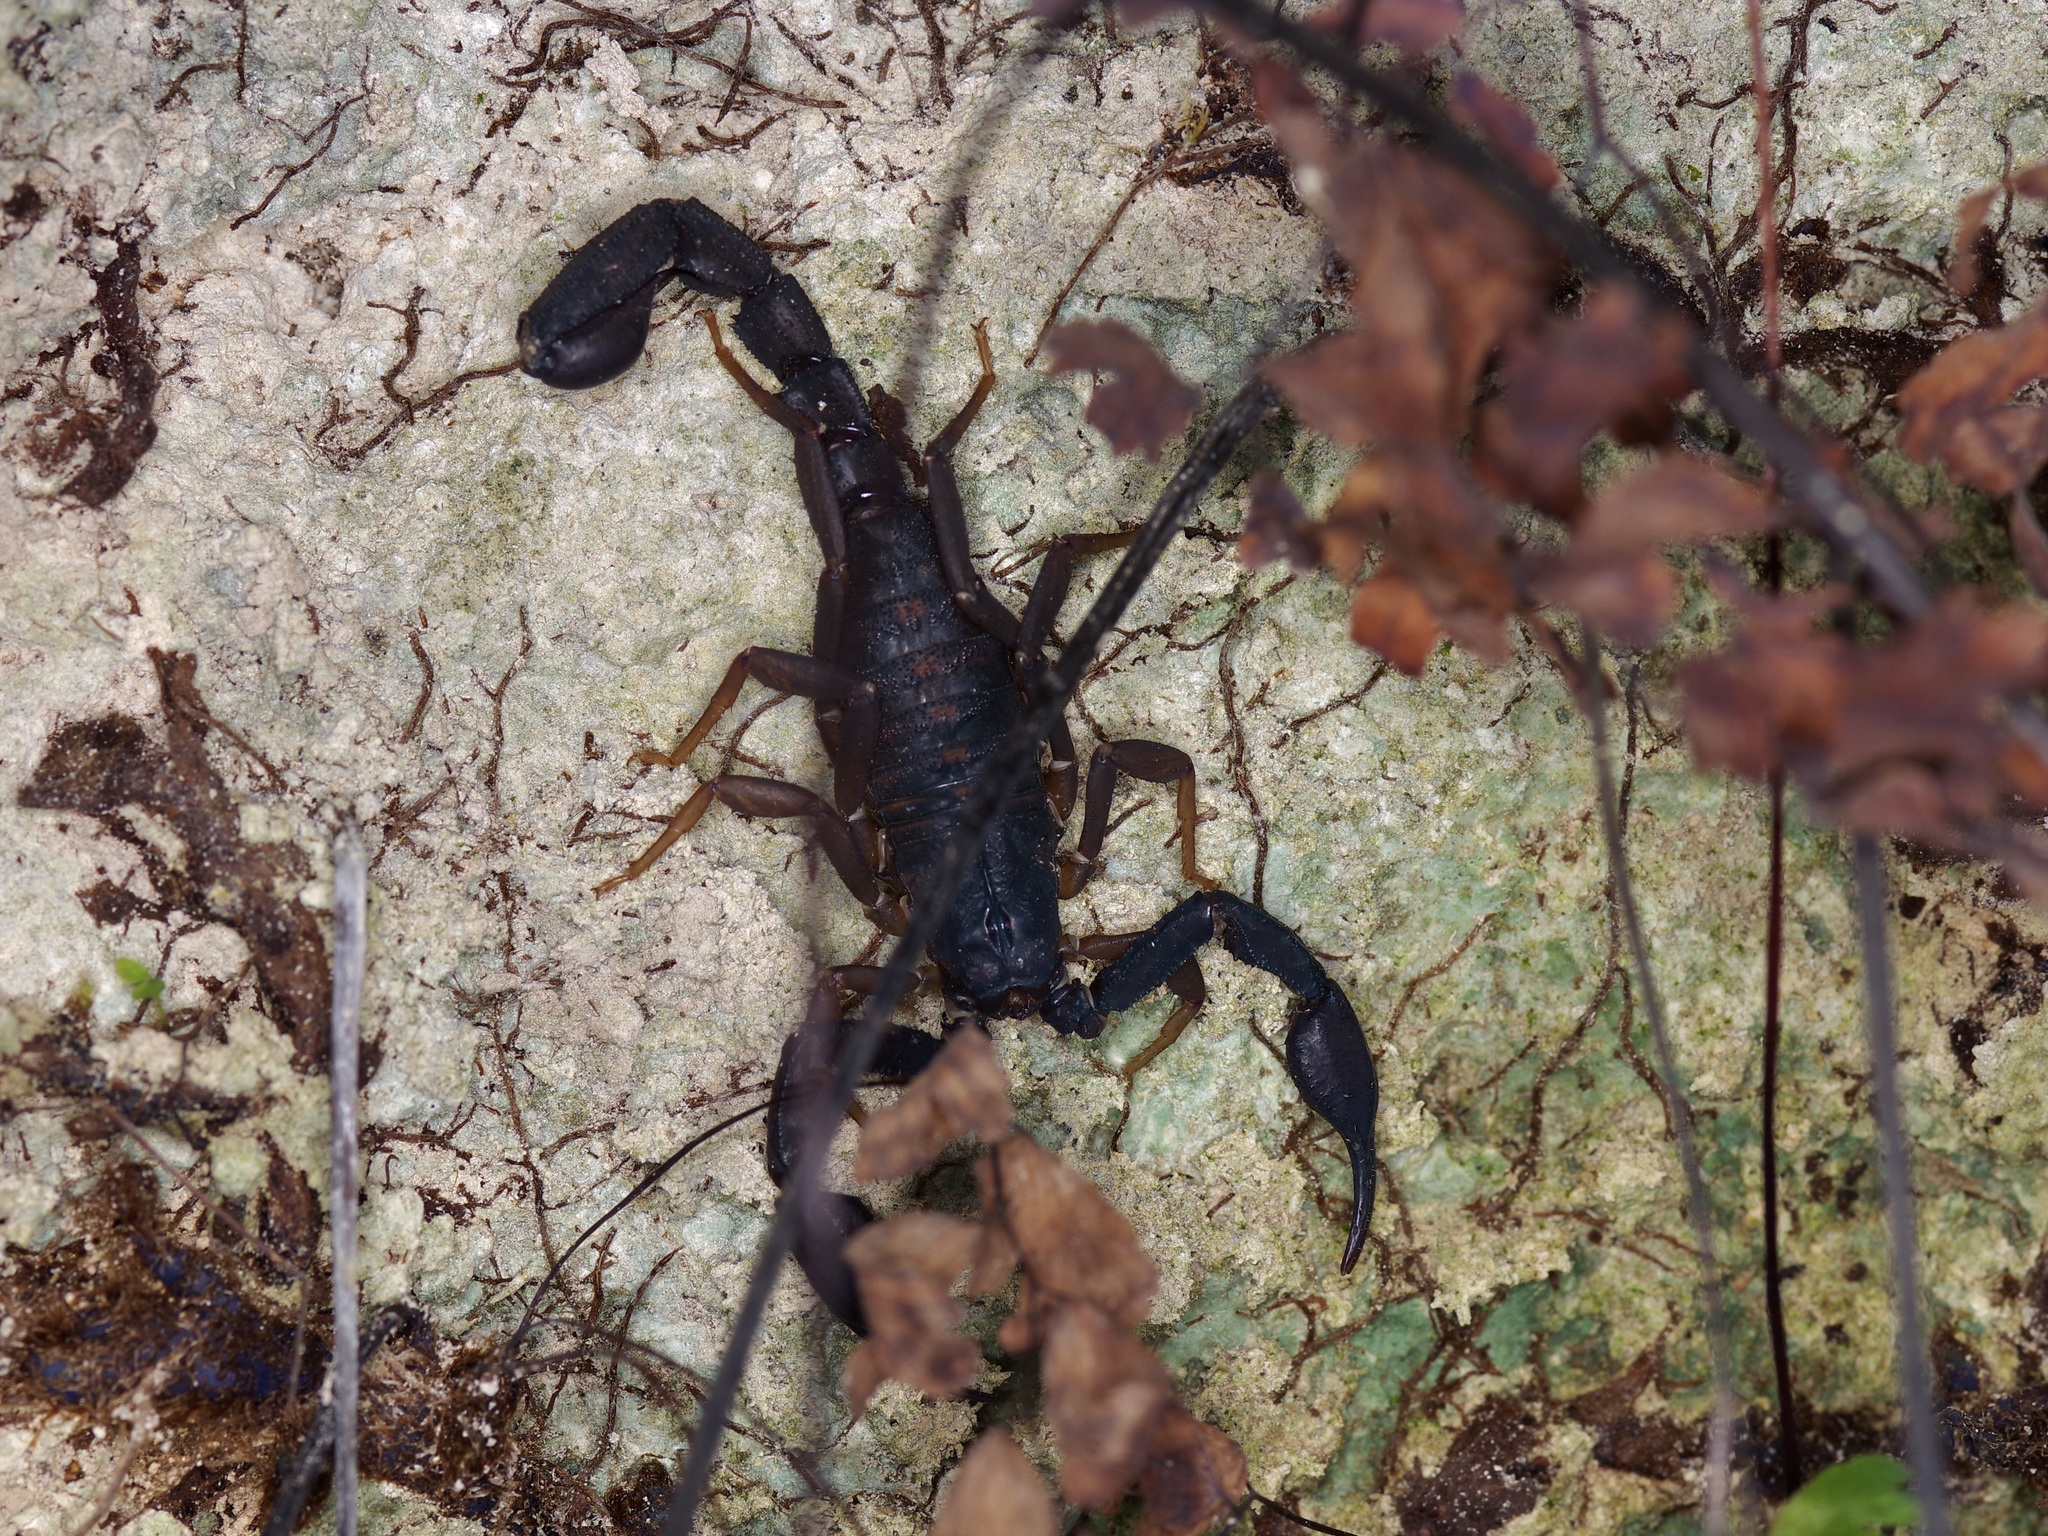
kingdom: Animalia
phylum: Arthropoda
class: Arachnida
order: Scorpiones
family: Vaejovidae
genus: Pseudouroctonus
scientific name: Pseudouroctonus reddelli
